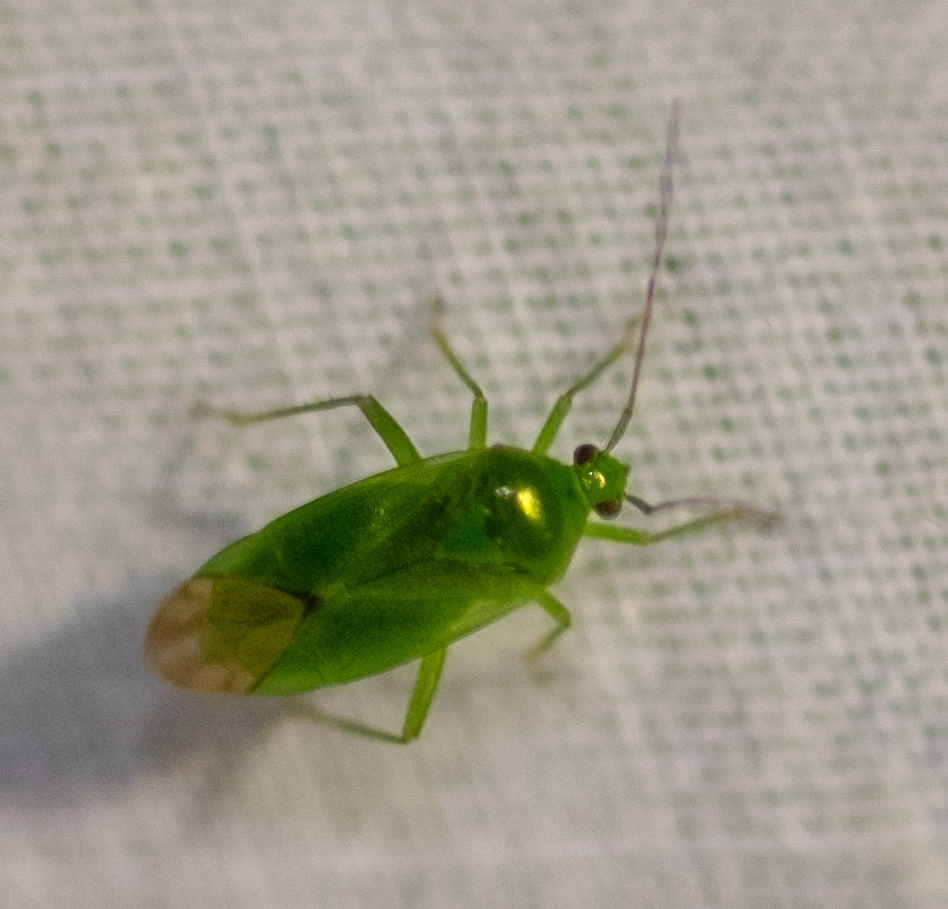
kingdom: Animalia
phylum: Arthropoda
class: Insecta
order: Hemiptera
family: Miridae
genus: Lygocoris
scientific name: Lygocoris pabulinus
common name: Common green capsid
